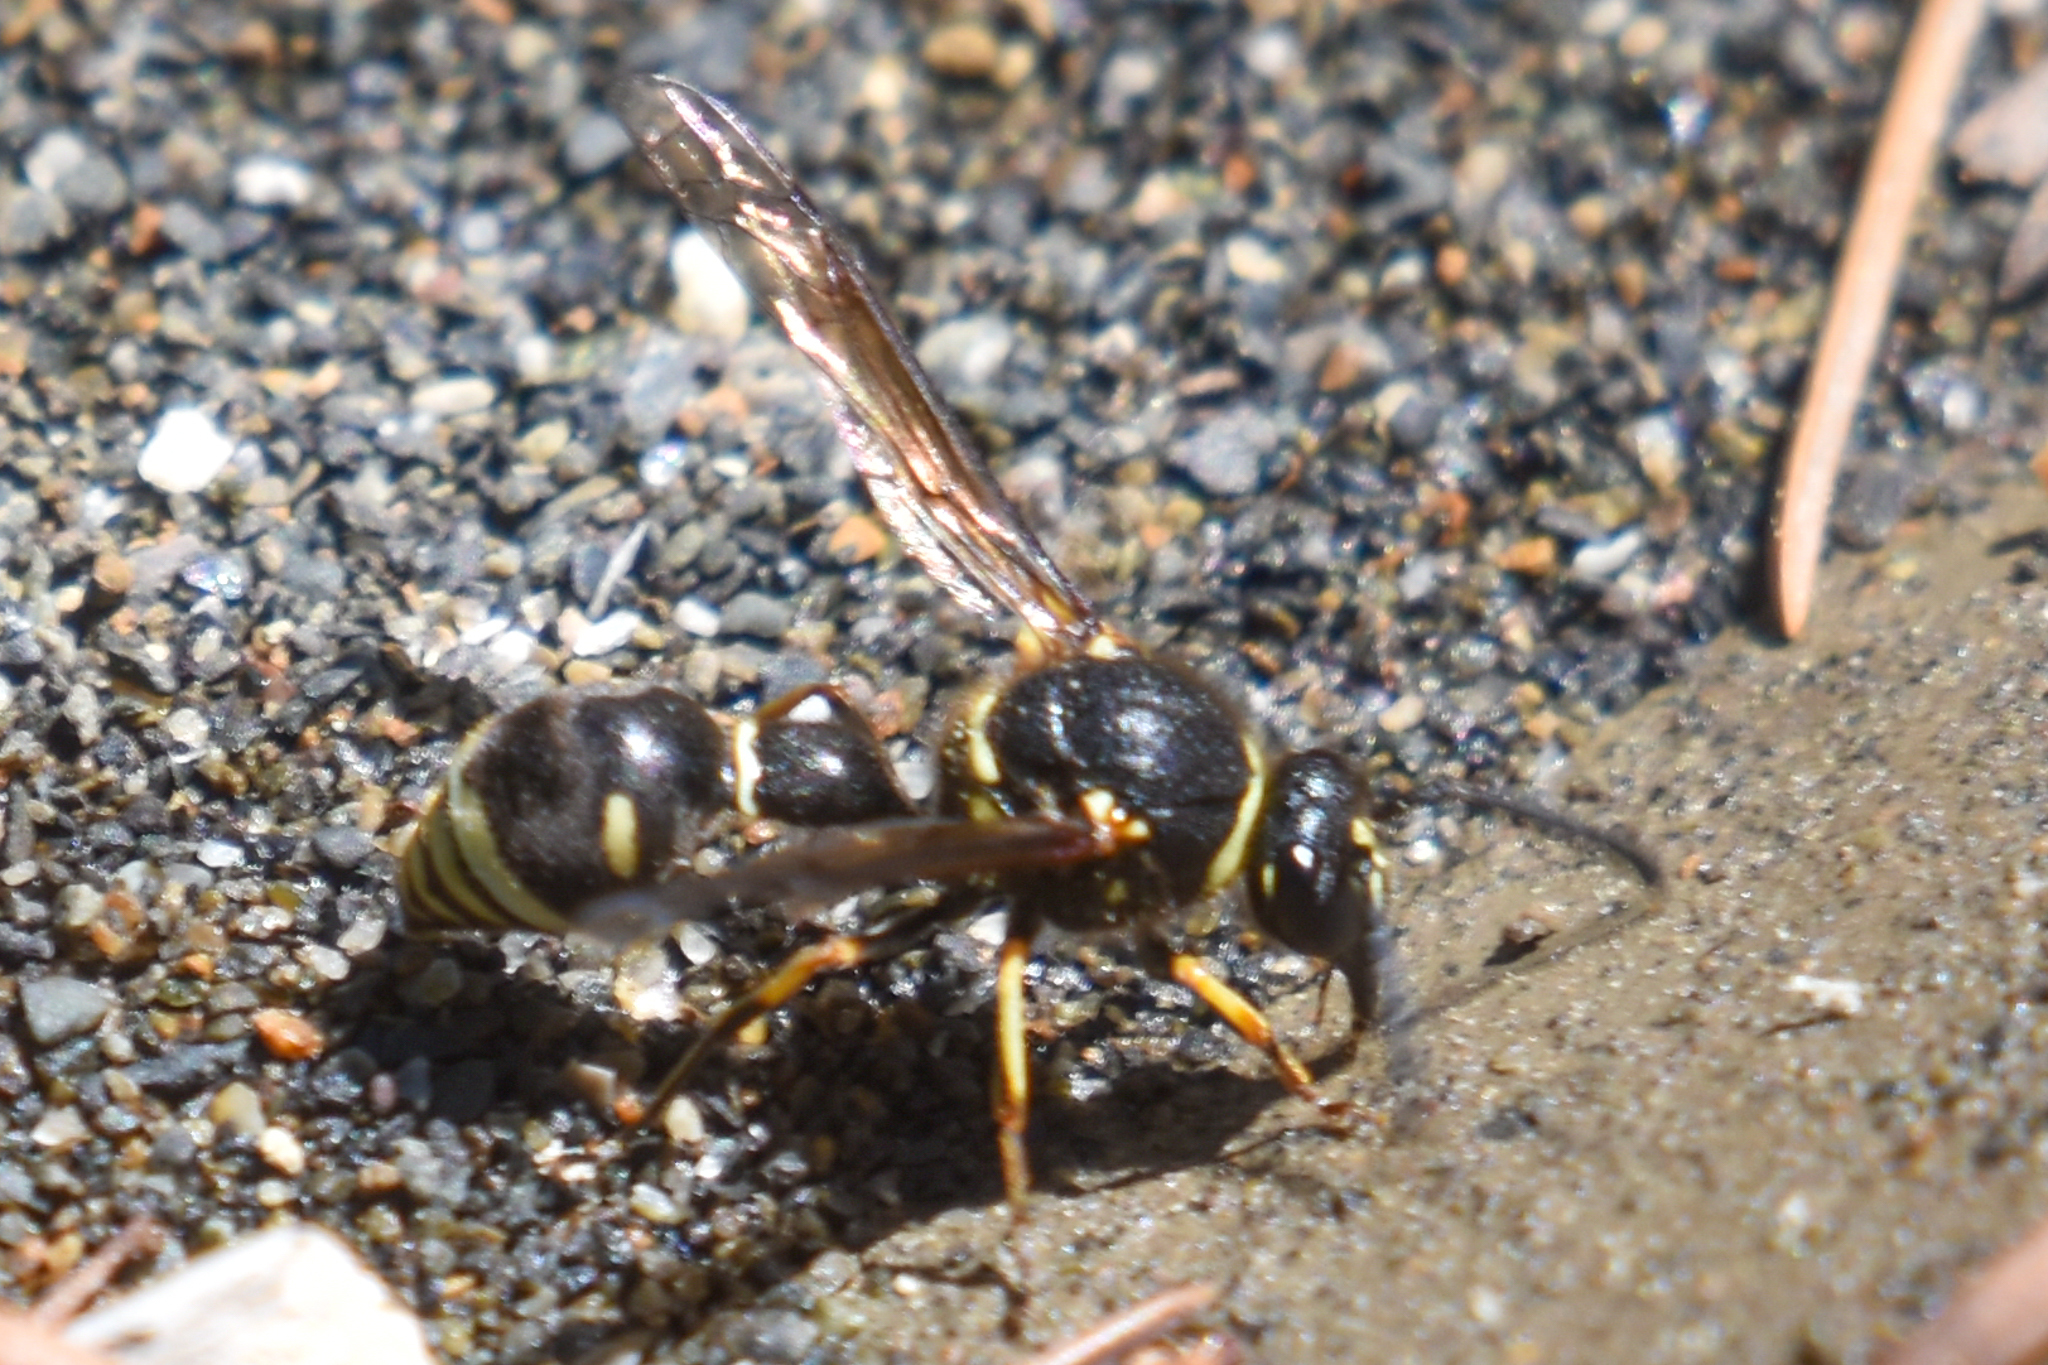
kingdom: Animalia
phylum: Arthropoda
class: Insecta
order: Hymenoptera
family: Vespidae
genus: Eumenes
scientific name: Eumenes crucifera
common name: Cross potter wasp
